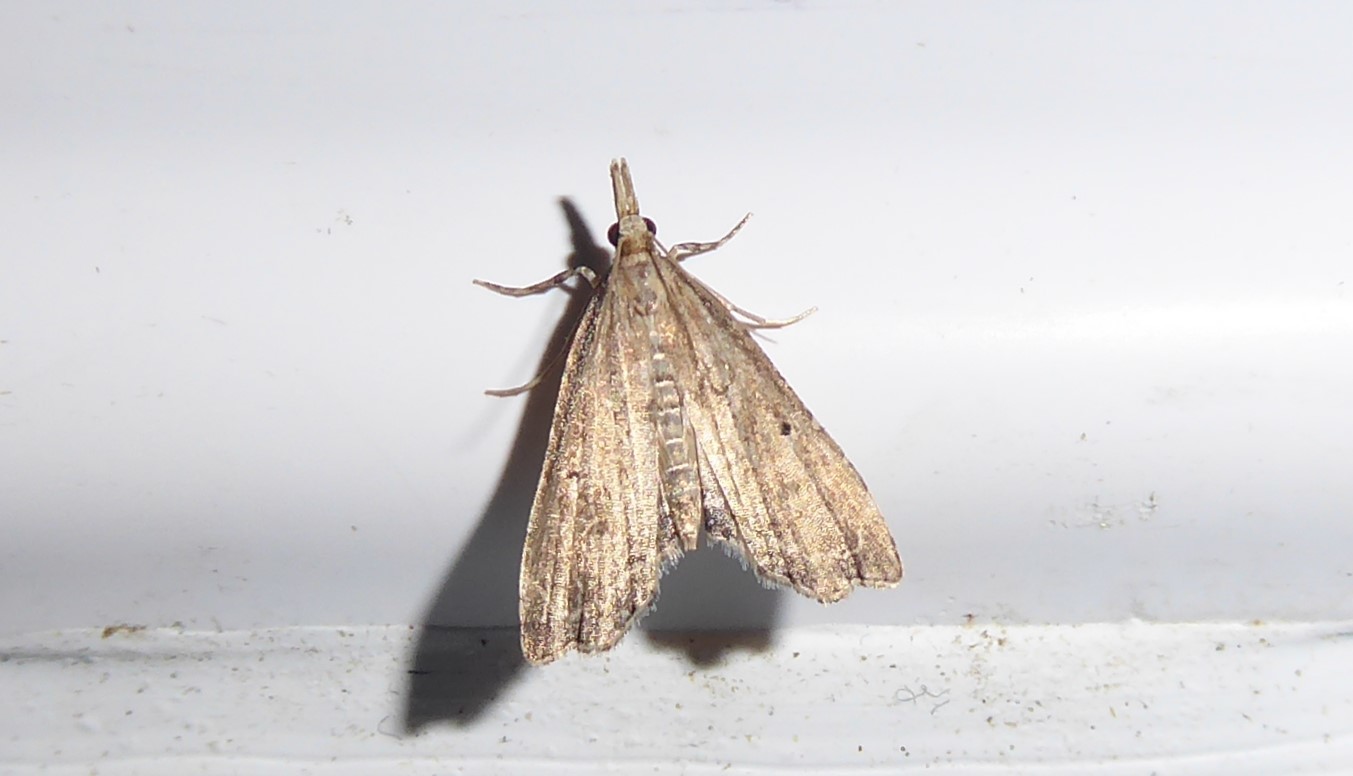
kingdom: Animalia
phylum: Arthropoda
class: Insecta
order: Lepidoptera
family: Crambidae
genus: Diplopseustis
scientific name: Diplopseustis perieresalis
